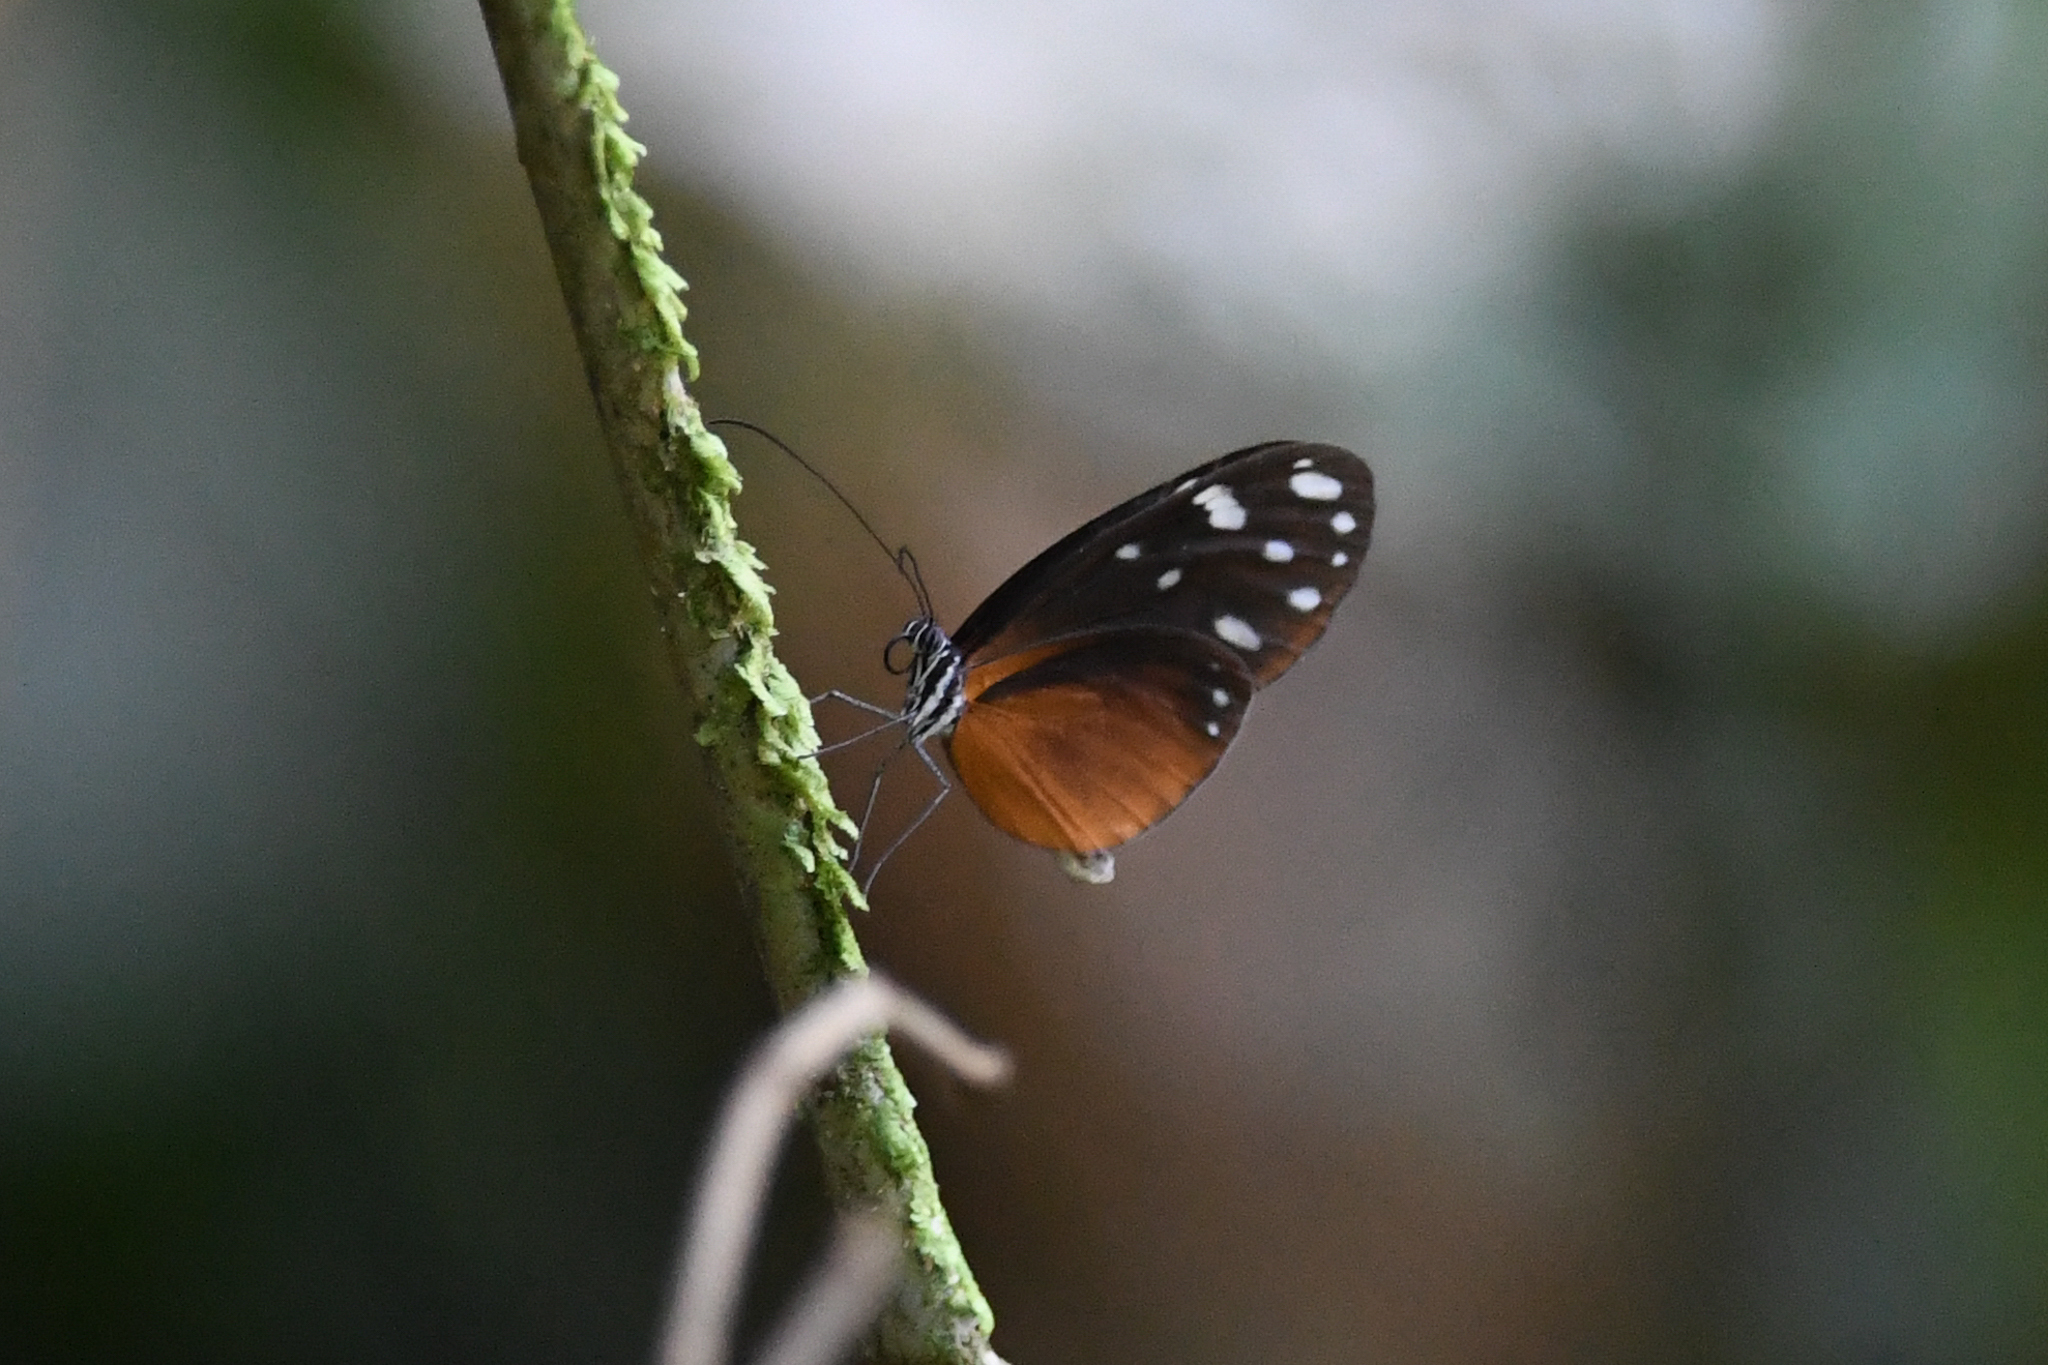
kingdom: Animalia
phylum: Arthropoda
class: Insecta
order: Lepidoptera
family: Nymphalidae
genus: Hyposcada
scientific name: Hyposcada virginiana
